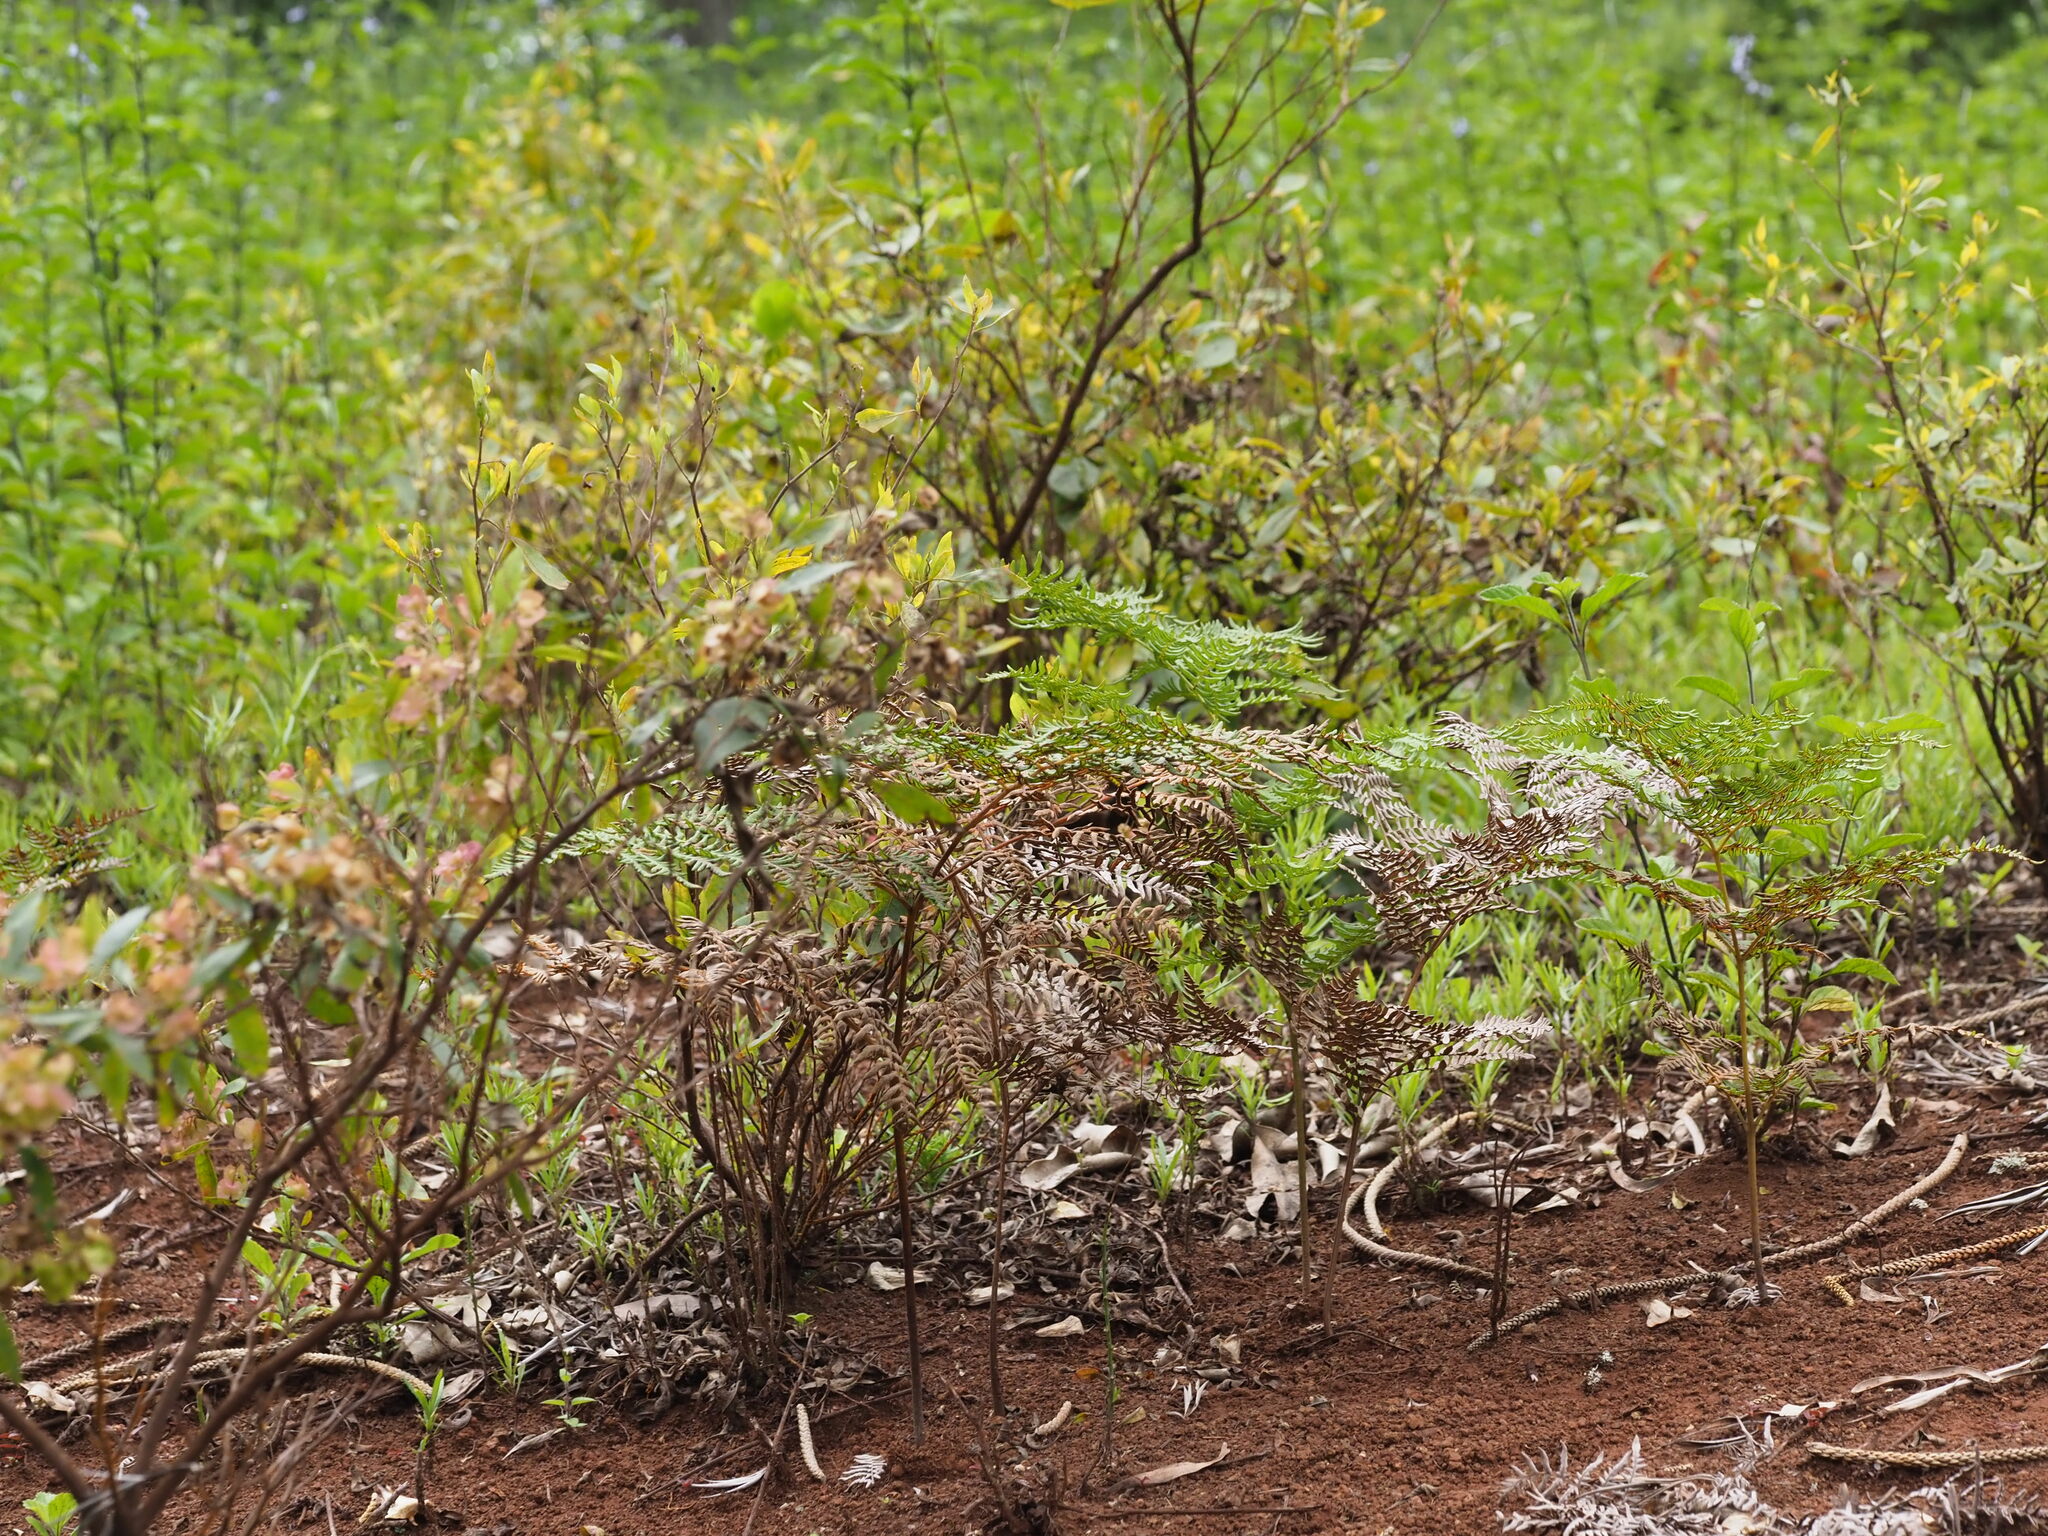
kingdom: Plantae
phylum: Tracheophyta
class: Polypodiopsida
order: Polypodiales
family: Dennstaedtiaceae
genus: Pteridium
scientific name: Pteridium aquilinum
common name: Bracken
